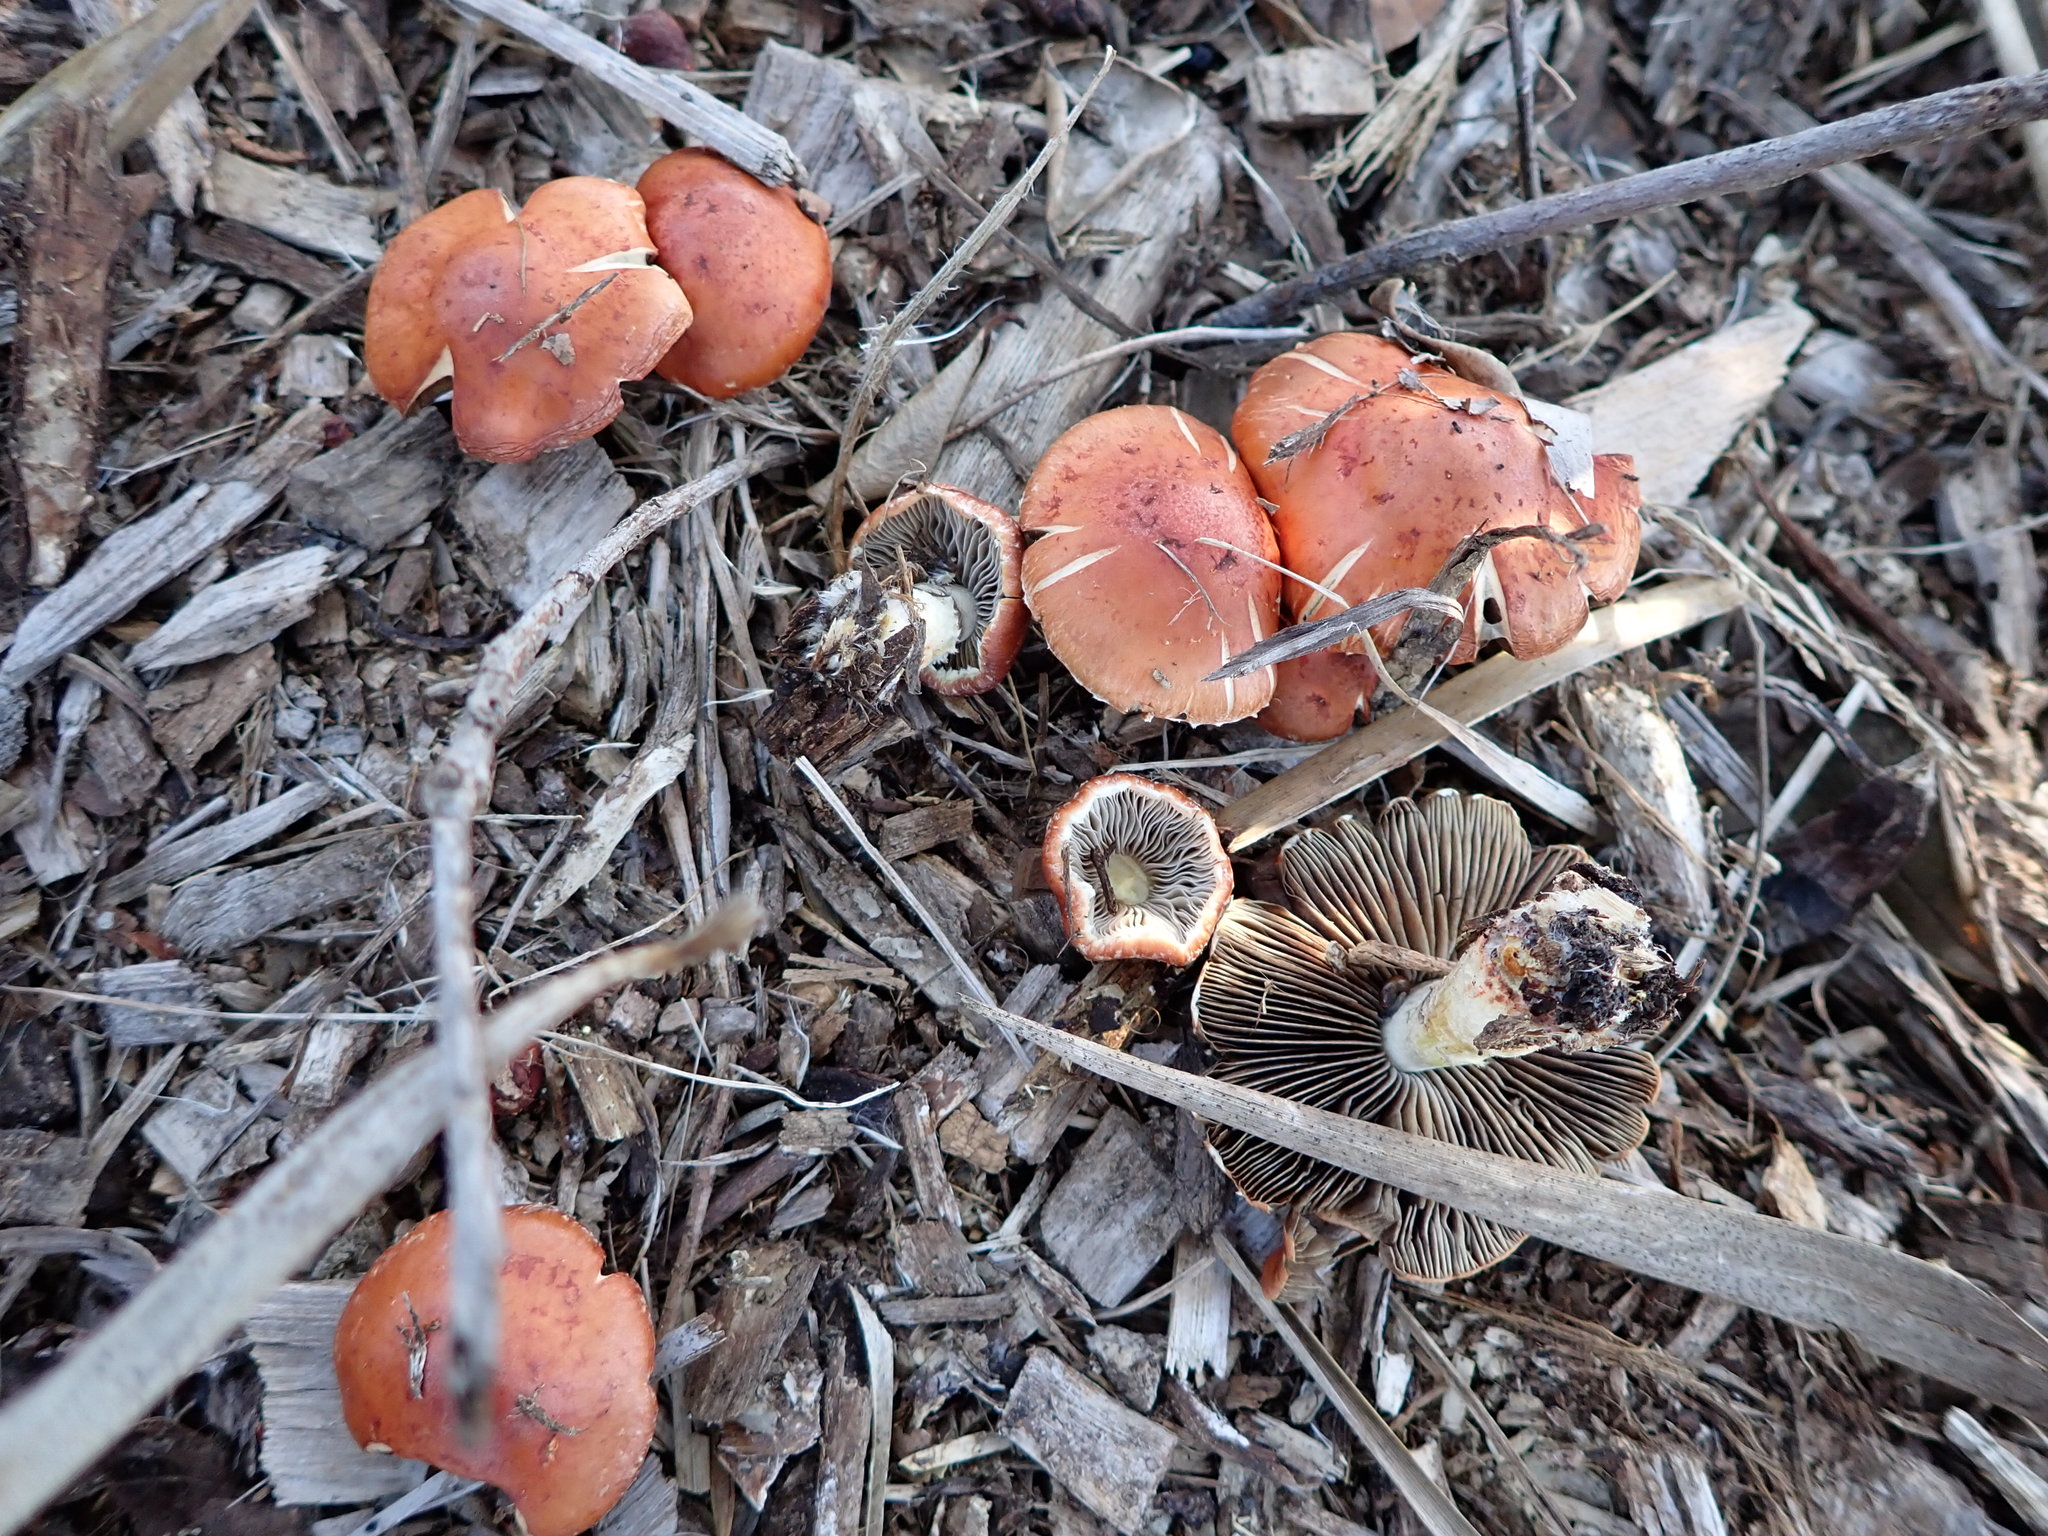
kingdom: Fungi
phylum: Basidiomycota
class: Agaricomycetes
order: Agaricales
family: Strophariaceae
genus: Leratiomyces
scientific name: Leratiomyces ceres
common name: Redlead roundhead
